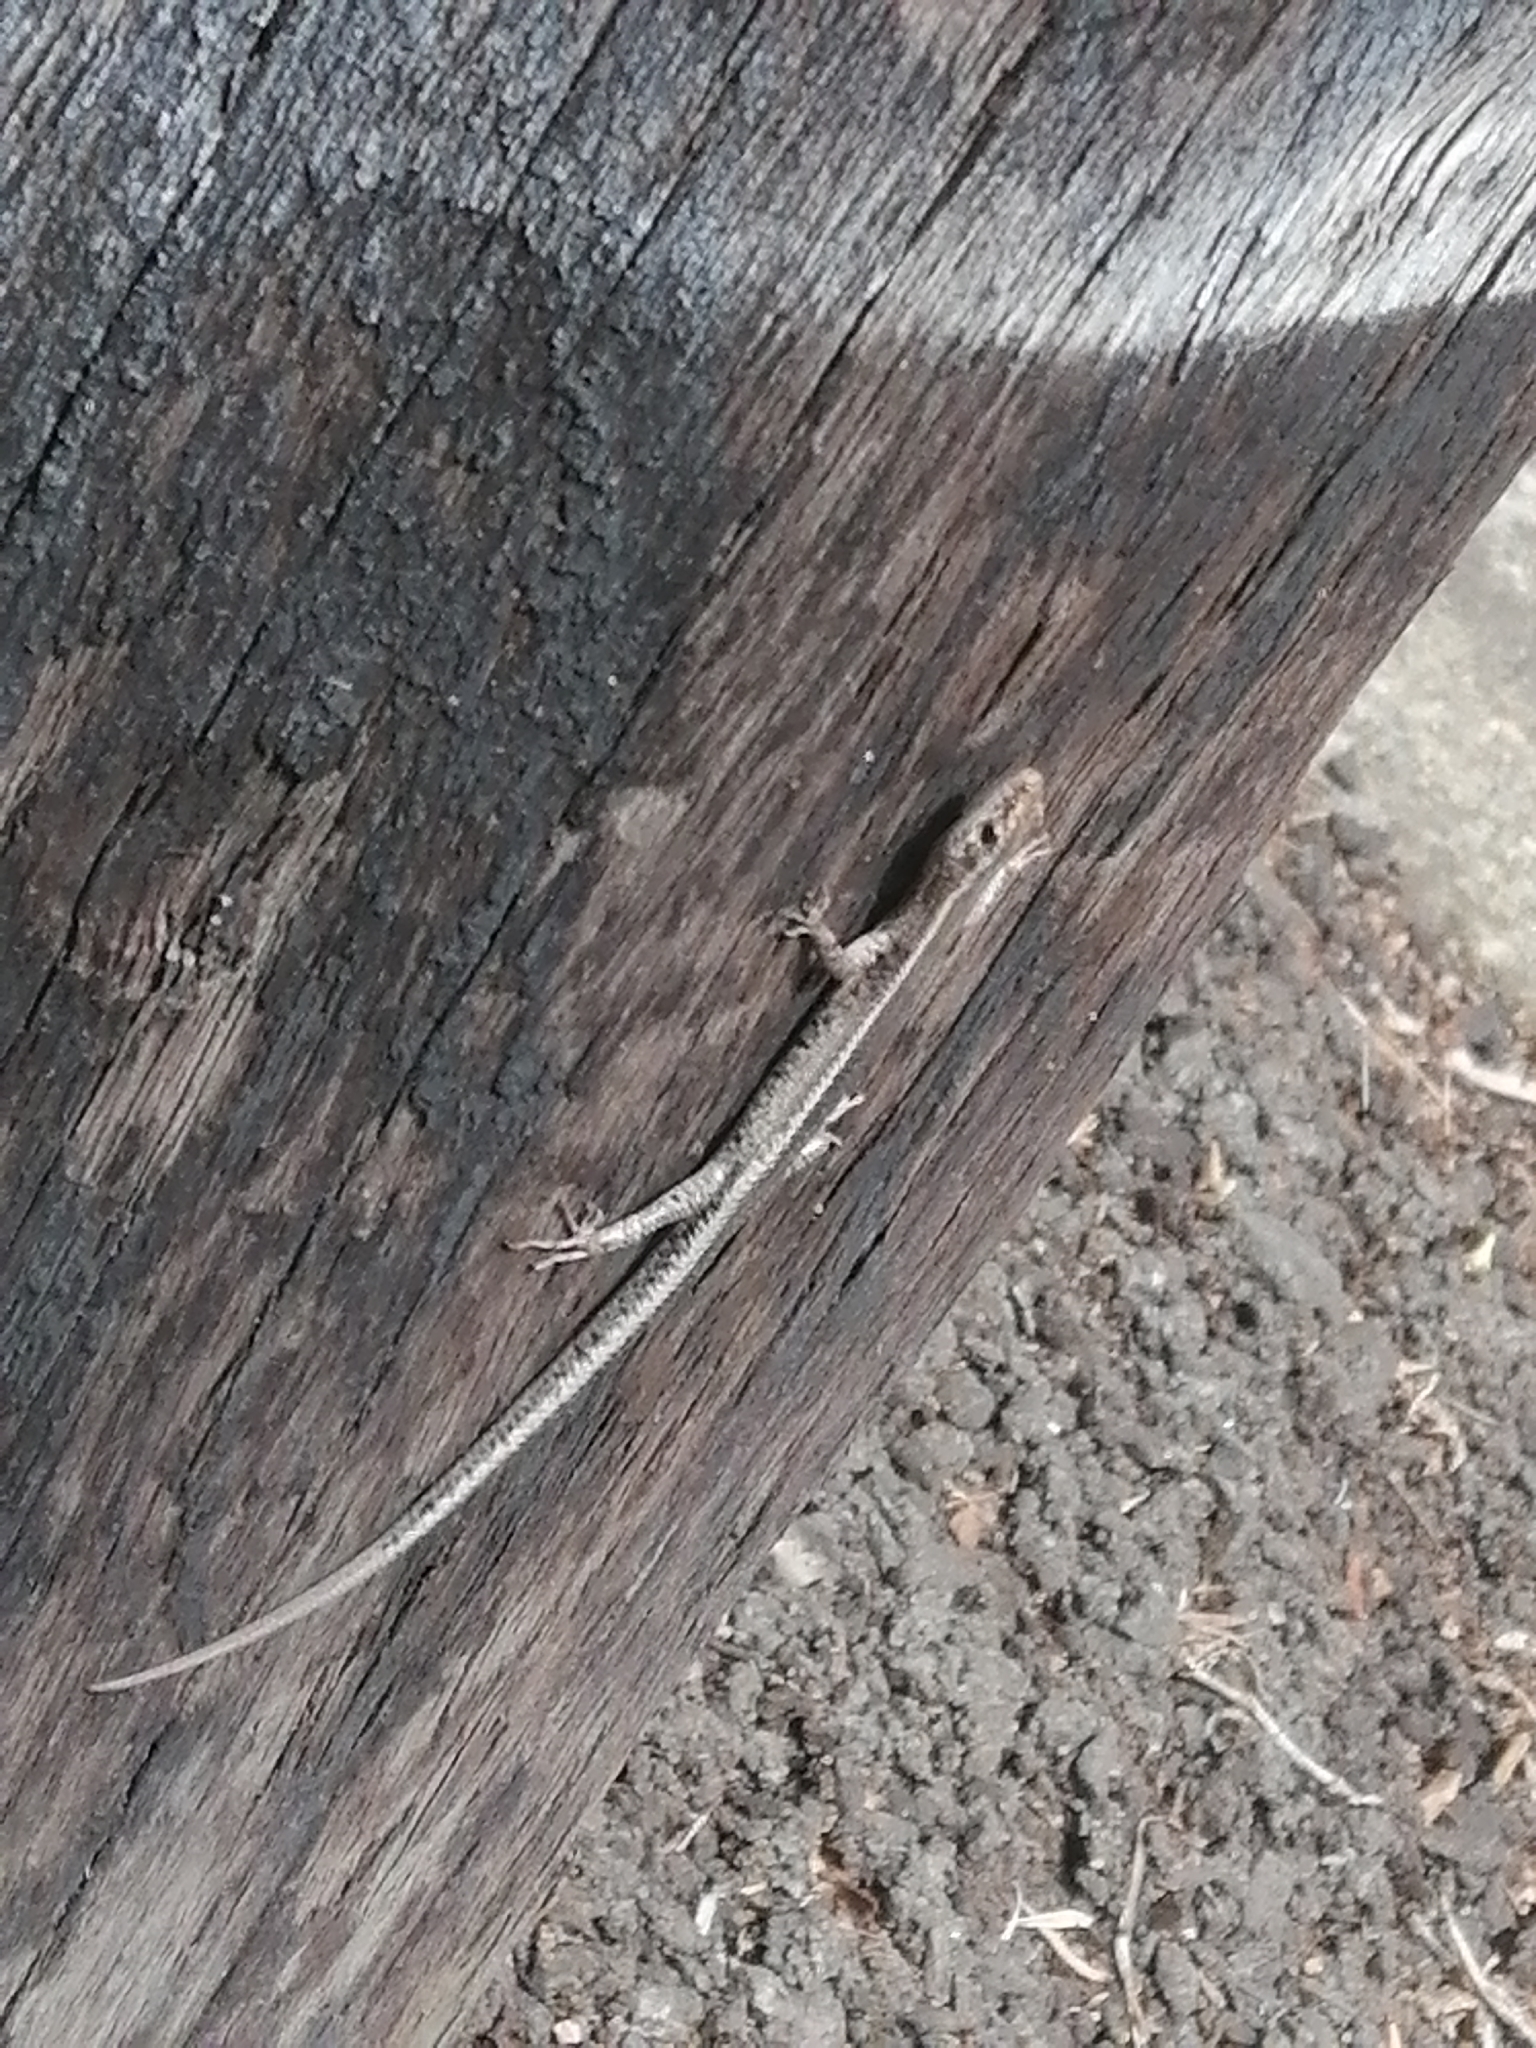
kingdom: Animalia
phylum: Chordata
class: Squamata
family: Scincidae
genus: Cryptoblepharus
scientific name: Cryptoblepharus pulcher
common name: Elegant snake-eyed skink
